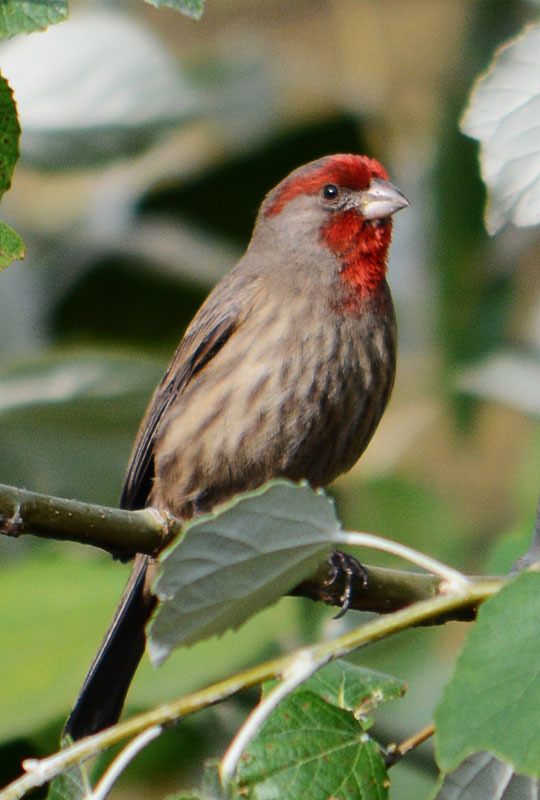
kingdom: Animalia
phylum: Chordata
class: Aves
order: Passeriformes
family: Fringillidae
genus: Haemorhous
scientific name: Haemorhous mexicanus
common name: House finch
